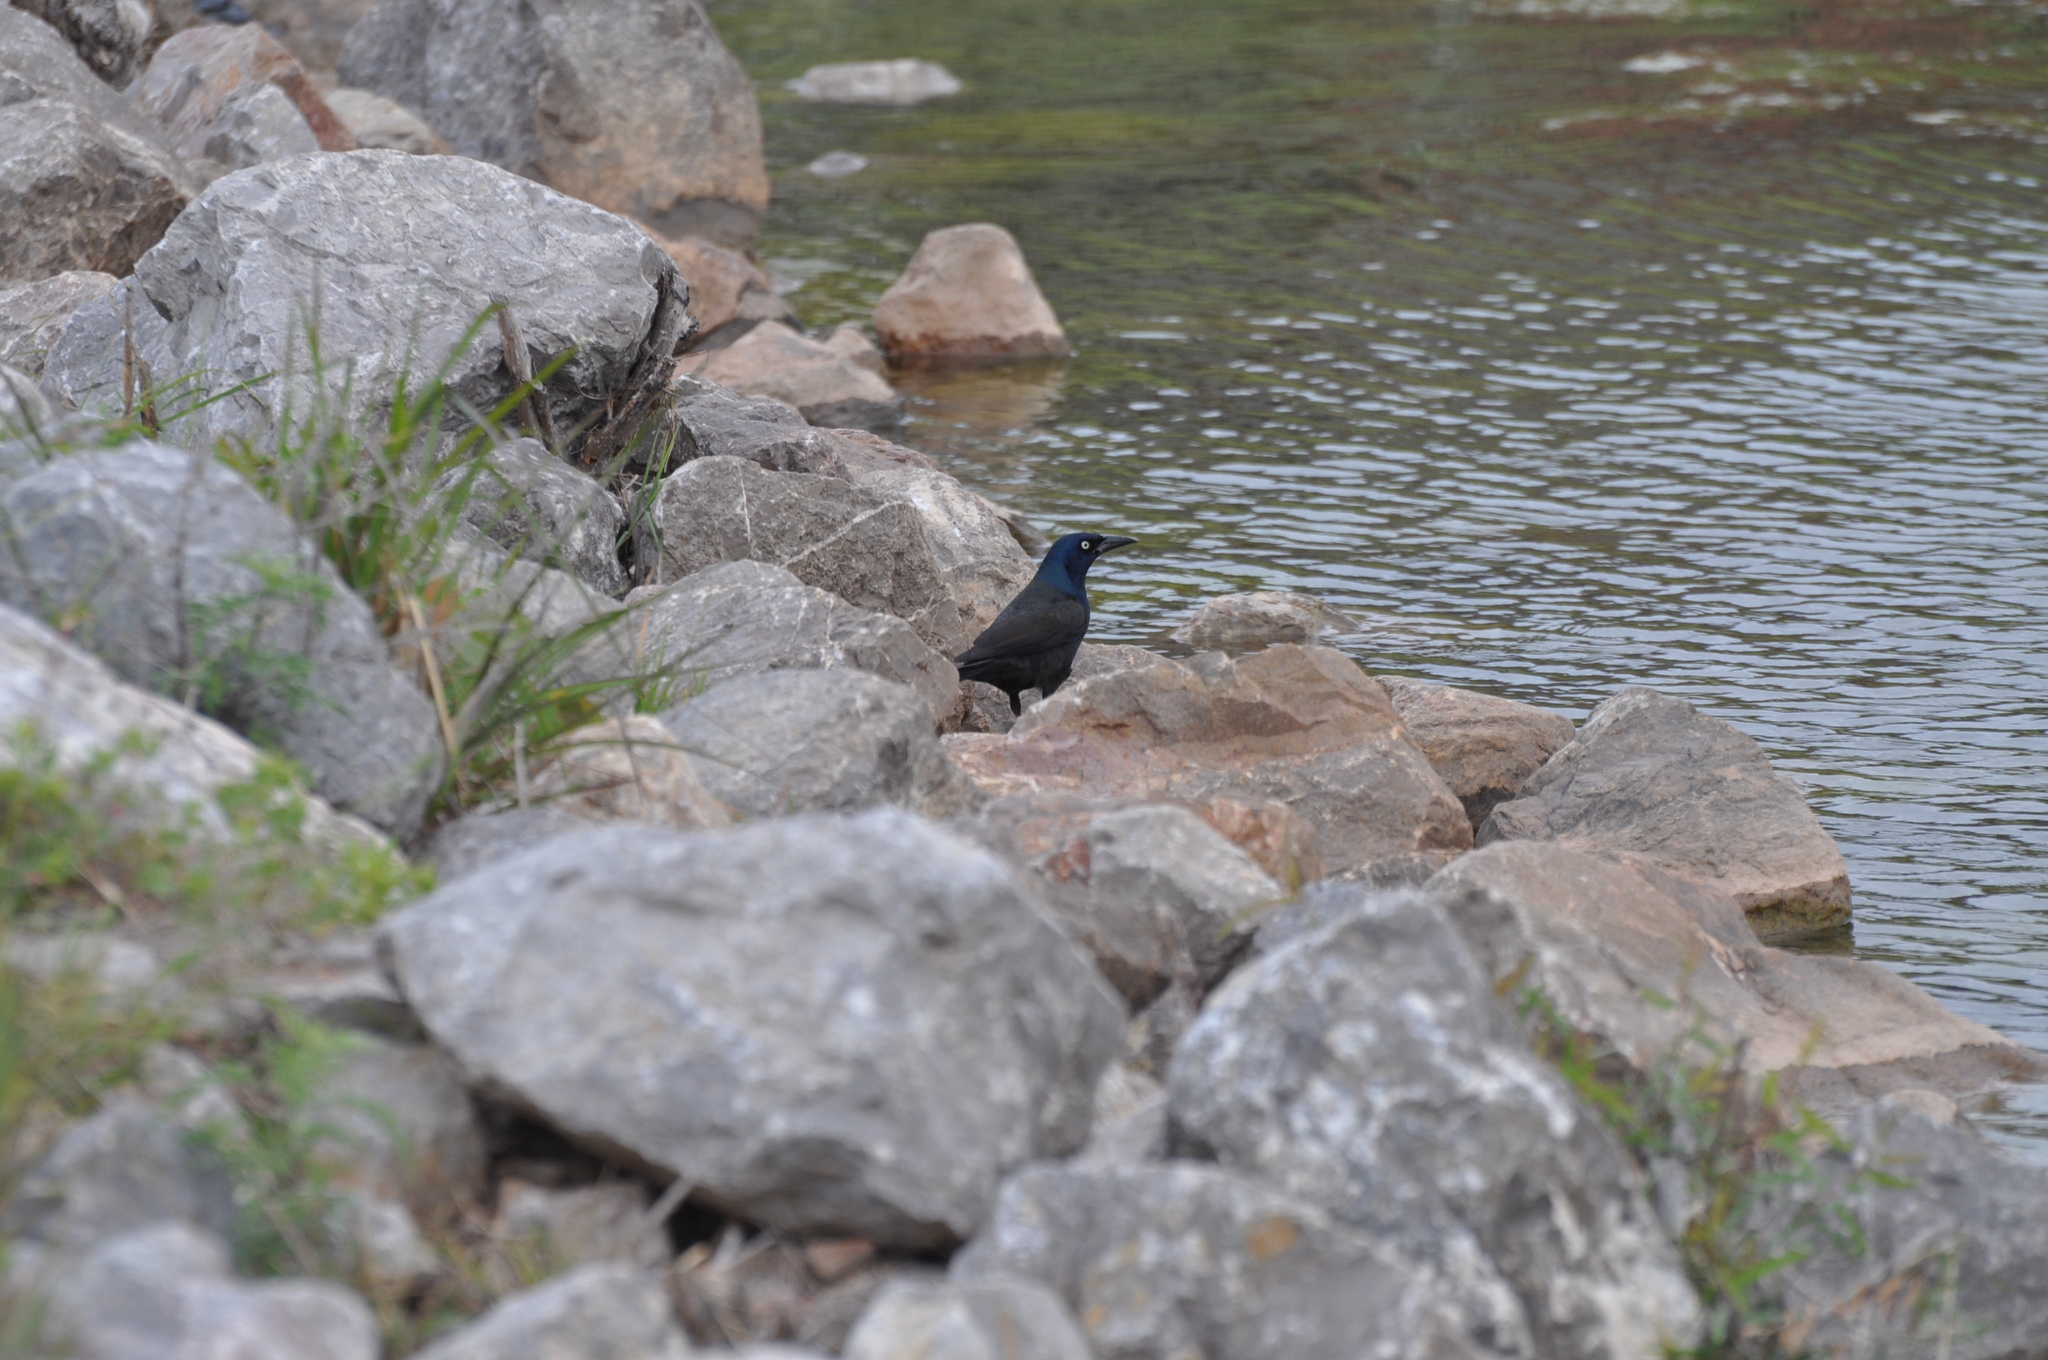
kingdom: Animalia
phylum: Chordata
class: Aves
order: Passeriformes
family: Icteridae
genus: Quiscalus
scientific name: Quiscalus quiscula
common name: Common grackle
